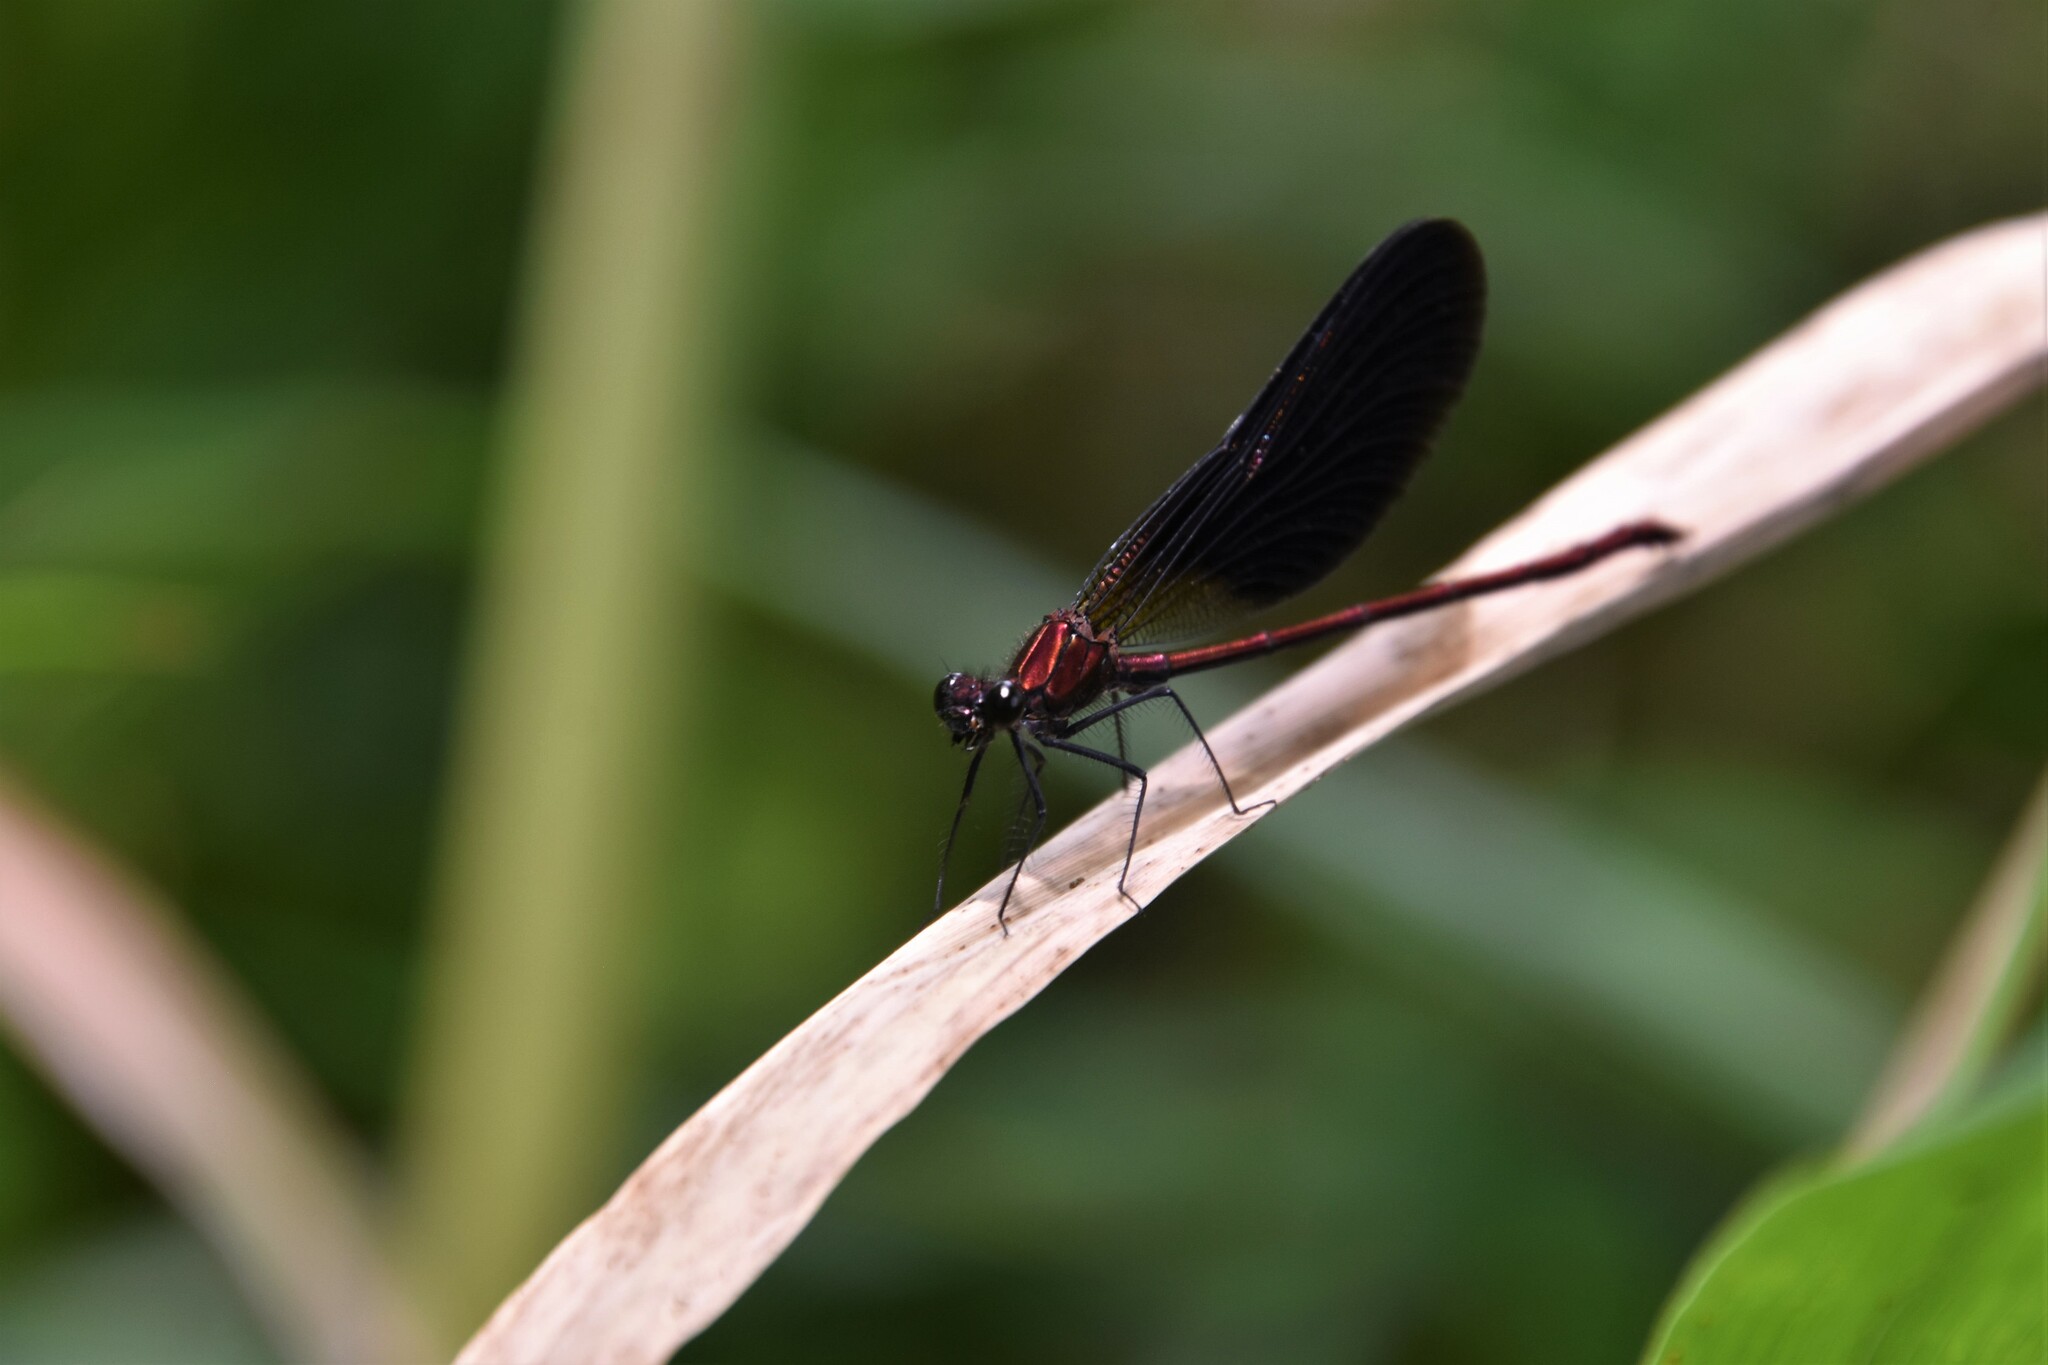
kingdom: Animalia
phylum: Arthropoda
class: Insecta
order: Odonata
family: Calopterygidae
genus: Calopteryx
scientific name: Calopteryx haemorrhoidalis
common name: Copper demoiselle
